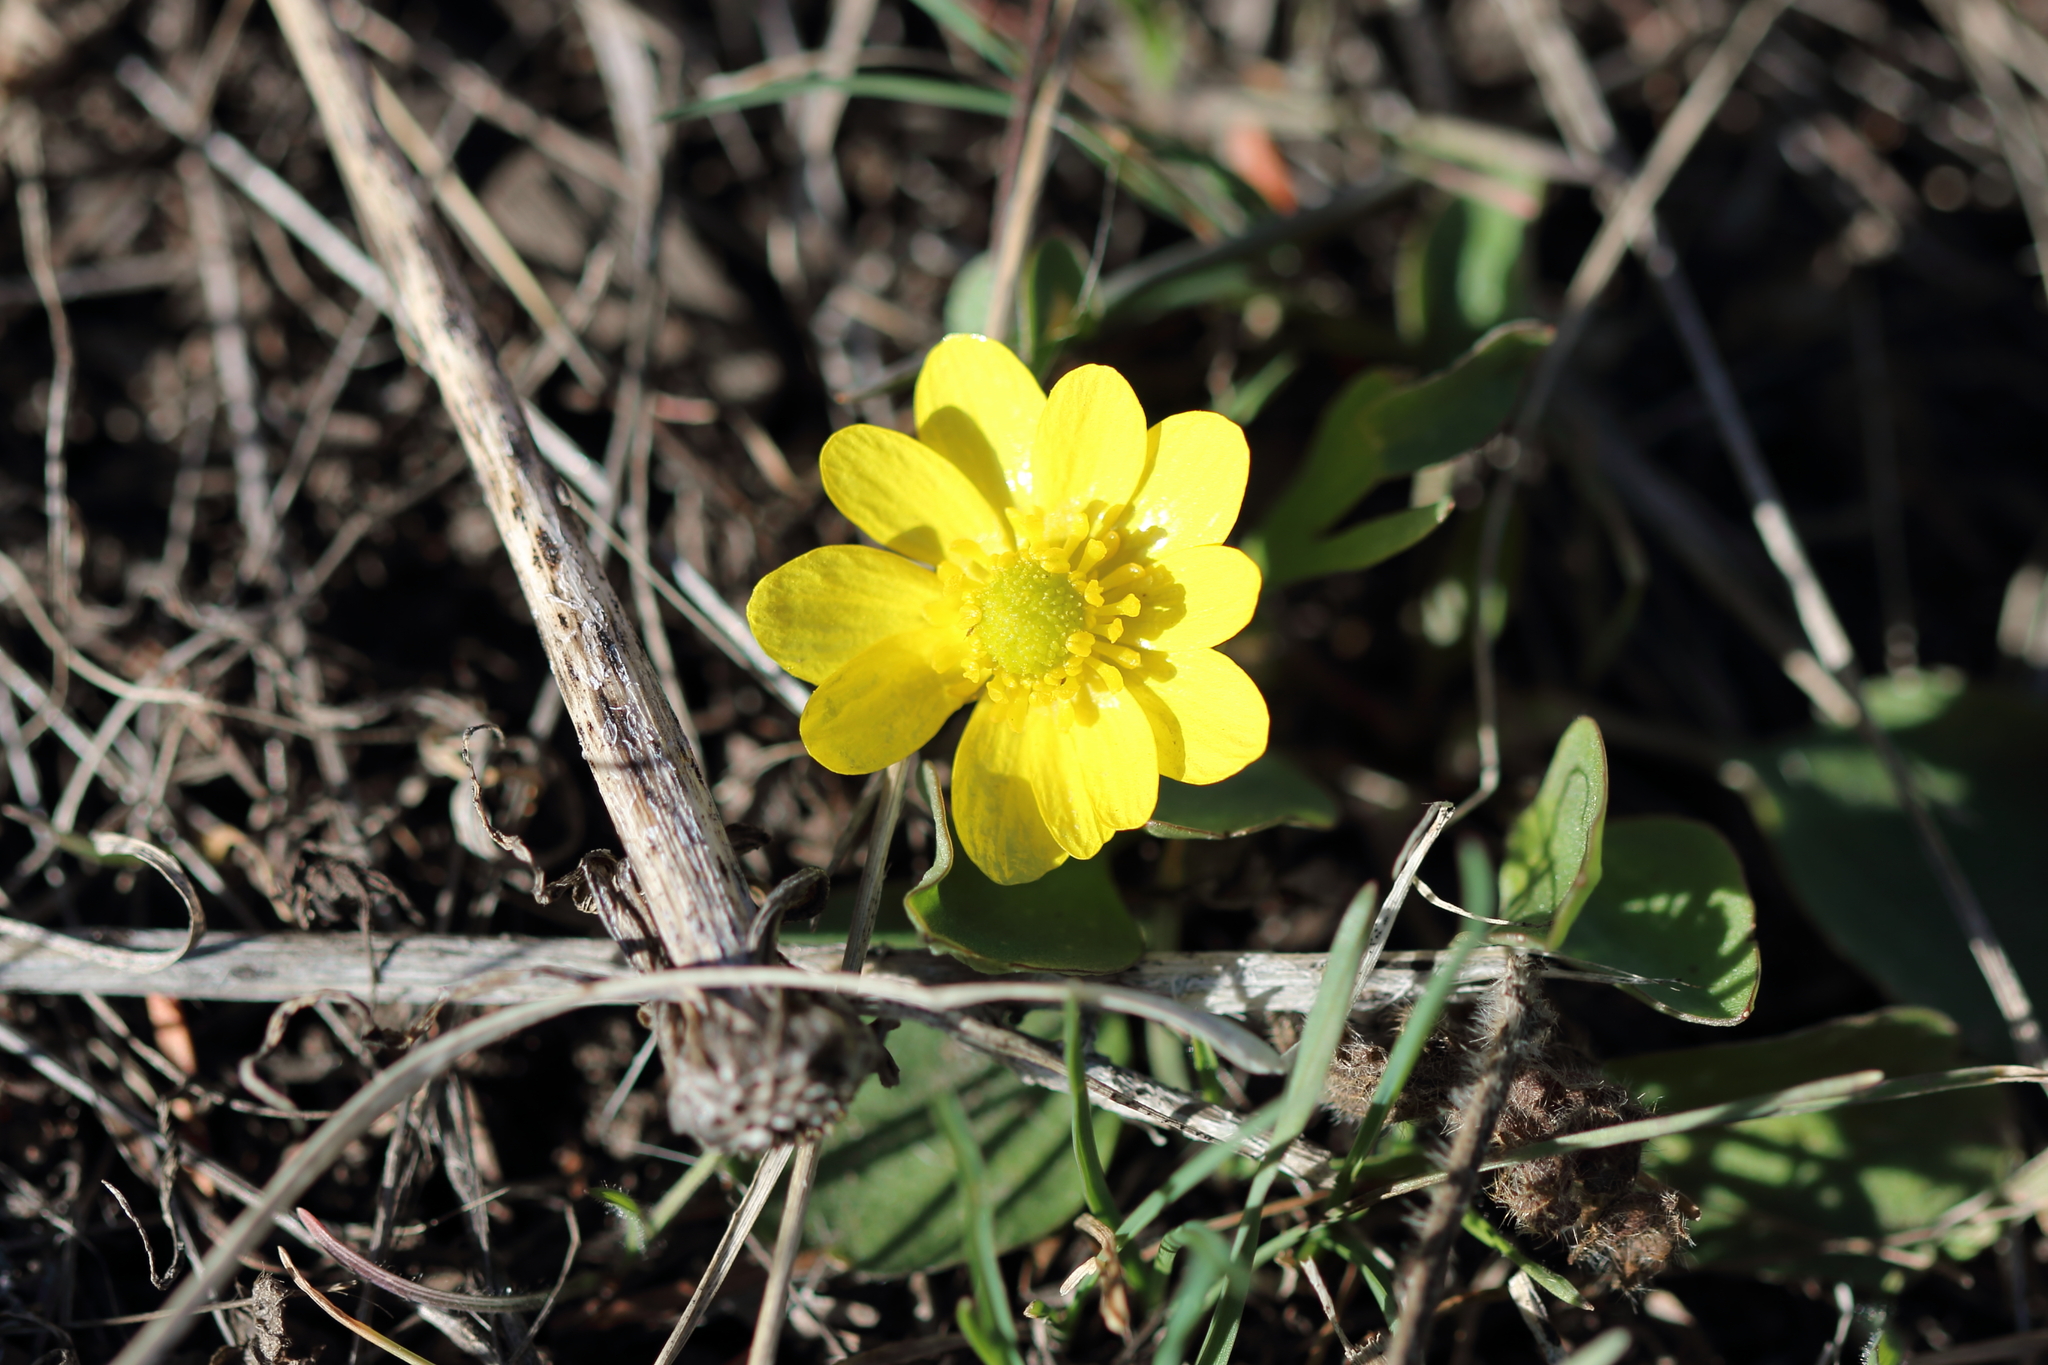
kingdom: Plantae
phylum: Tracheophyta
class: Magnoliopsida
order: Ranunculales
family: Ranunculaceae
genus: Ranunculus
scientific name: Ranunculus glaberrimus
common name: Sagebrush buttercup
